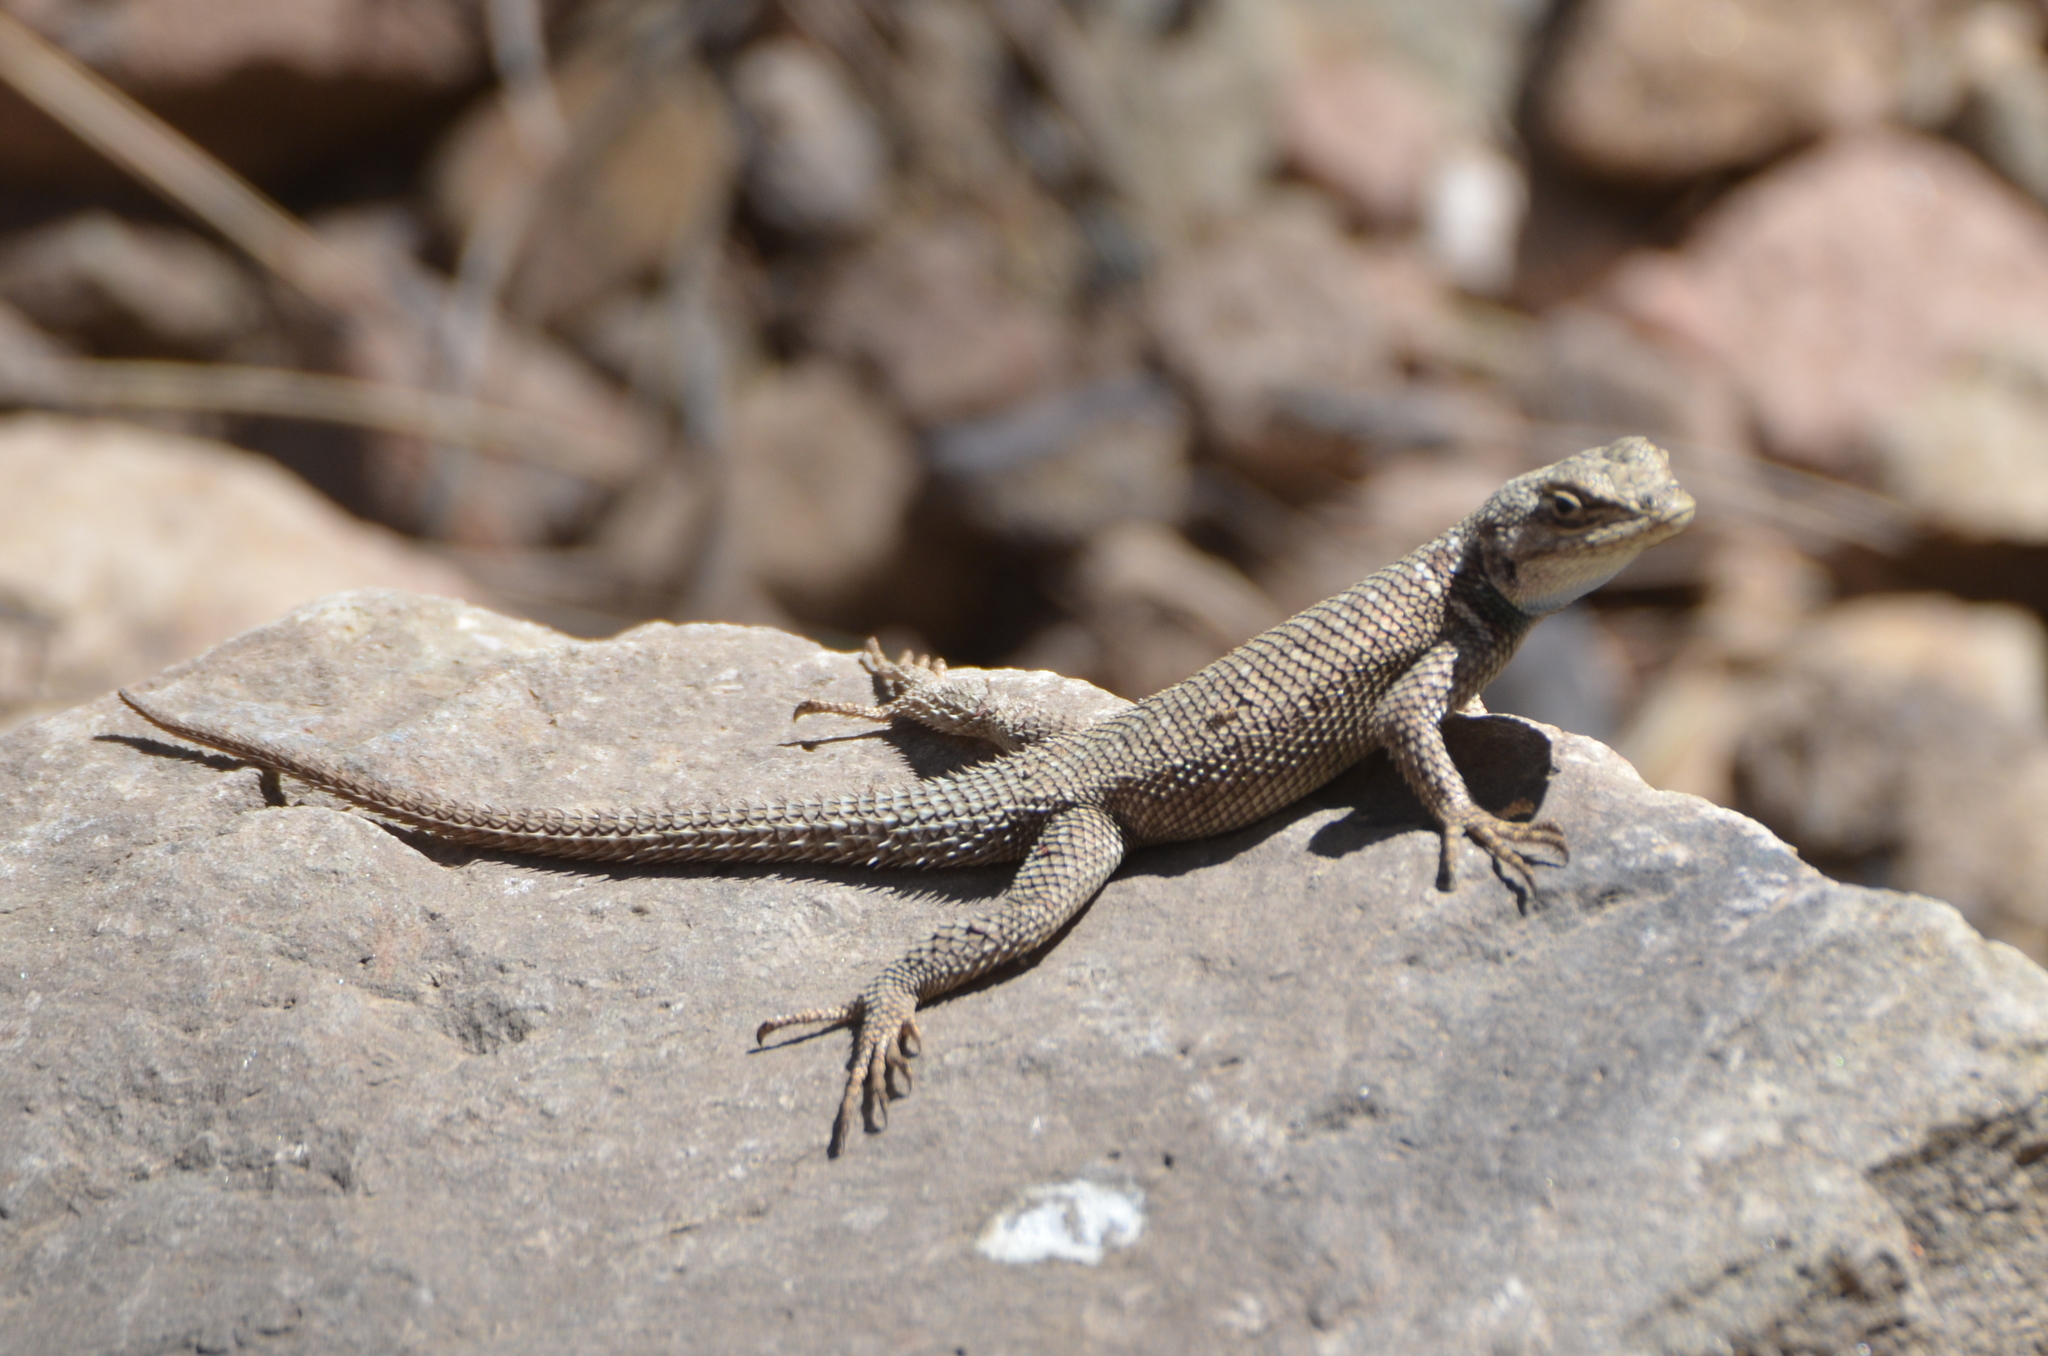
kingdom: Animalia
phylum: Chordata
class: Squamata
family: Phrynosomatidae
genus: Sceloporus
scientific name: Sceloporus jarrovii
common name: Yarrow's spiny lizard
